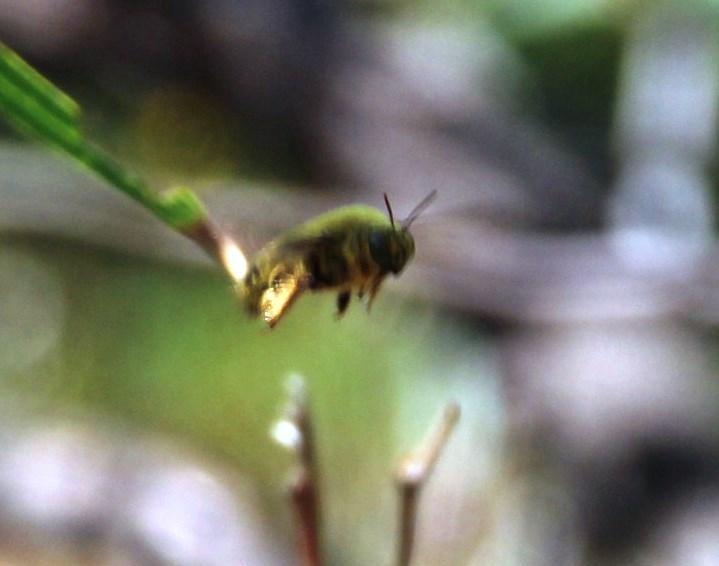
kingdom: Animalia
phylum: Arthropoda
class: Insecta
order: Hymenoptera
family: Apidae
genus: Xylocopa
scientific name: Xylocopa caffra
